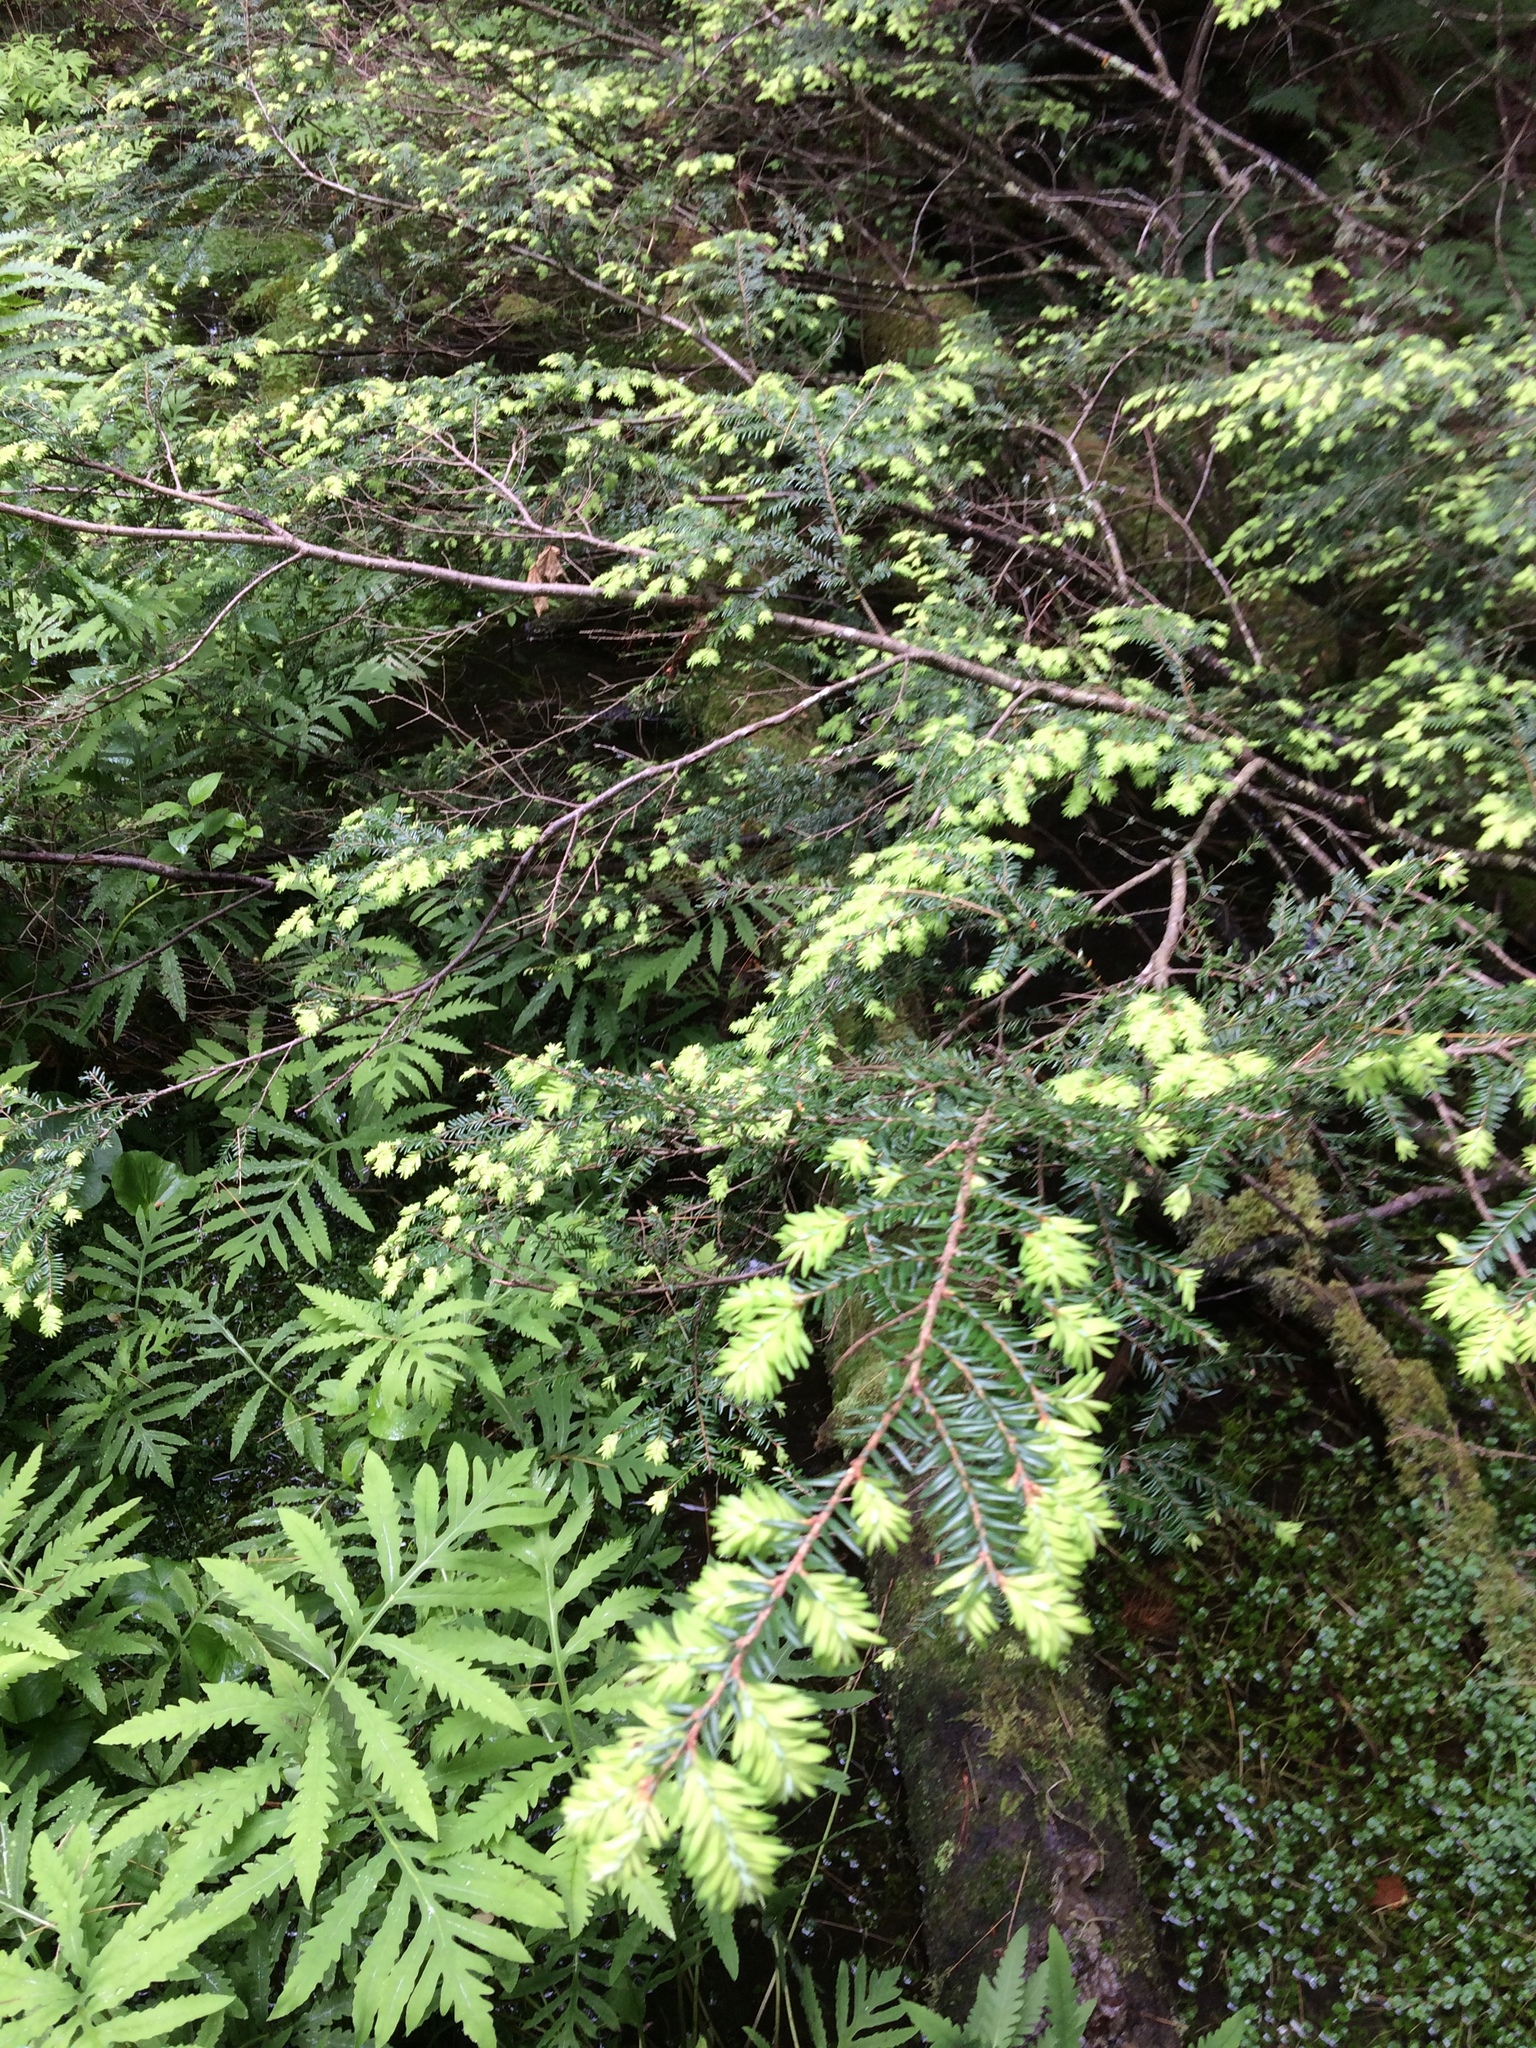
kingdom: Plantae
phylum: Tracheophyta
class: Pinopsida
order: Pinales
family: Pinaceae
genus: Tsuga
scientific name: Tsuga canadensis
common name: Eastern hemlock
